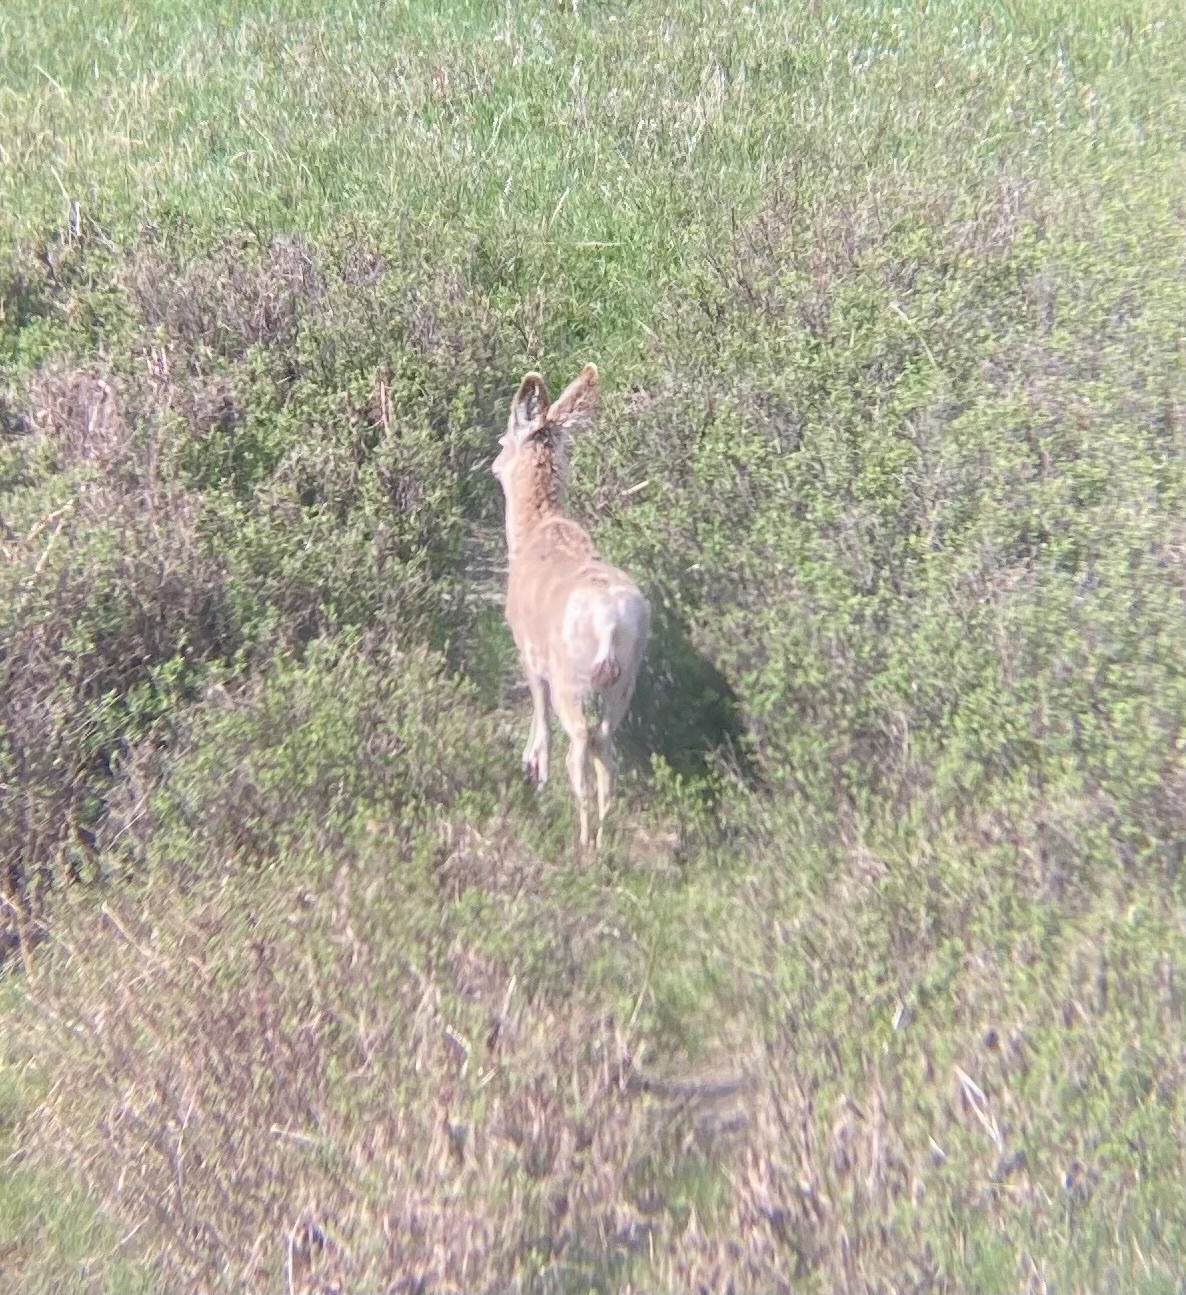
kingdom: Animalia
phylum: Chordata
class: Mammalia
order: Artiodactyla
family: Cervidae
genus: Odocoileus
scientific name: Odocoileus hemionus
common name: Mule deer
